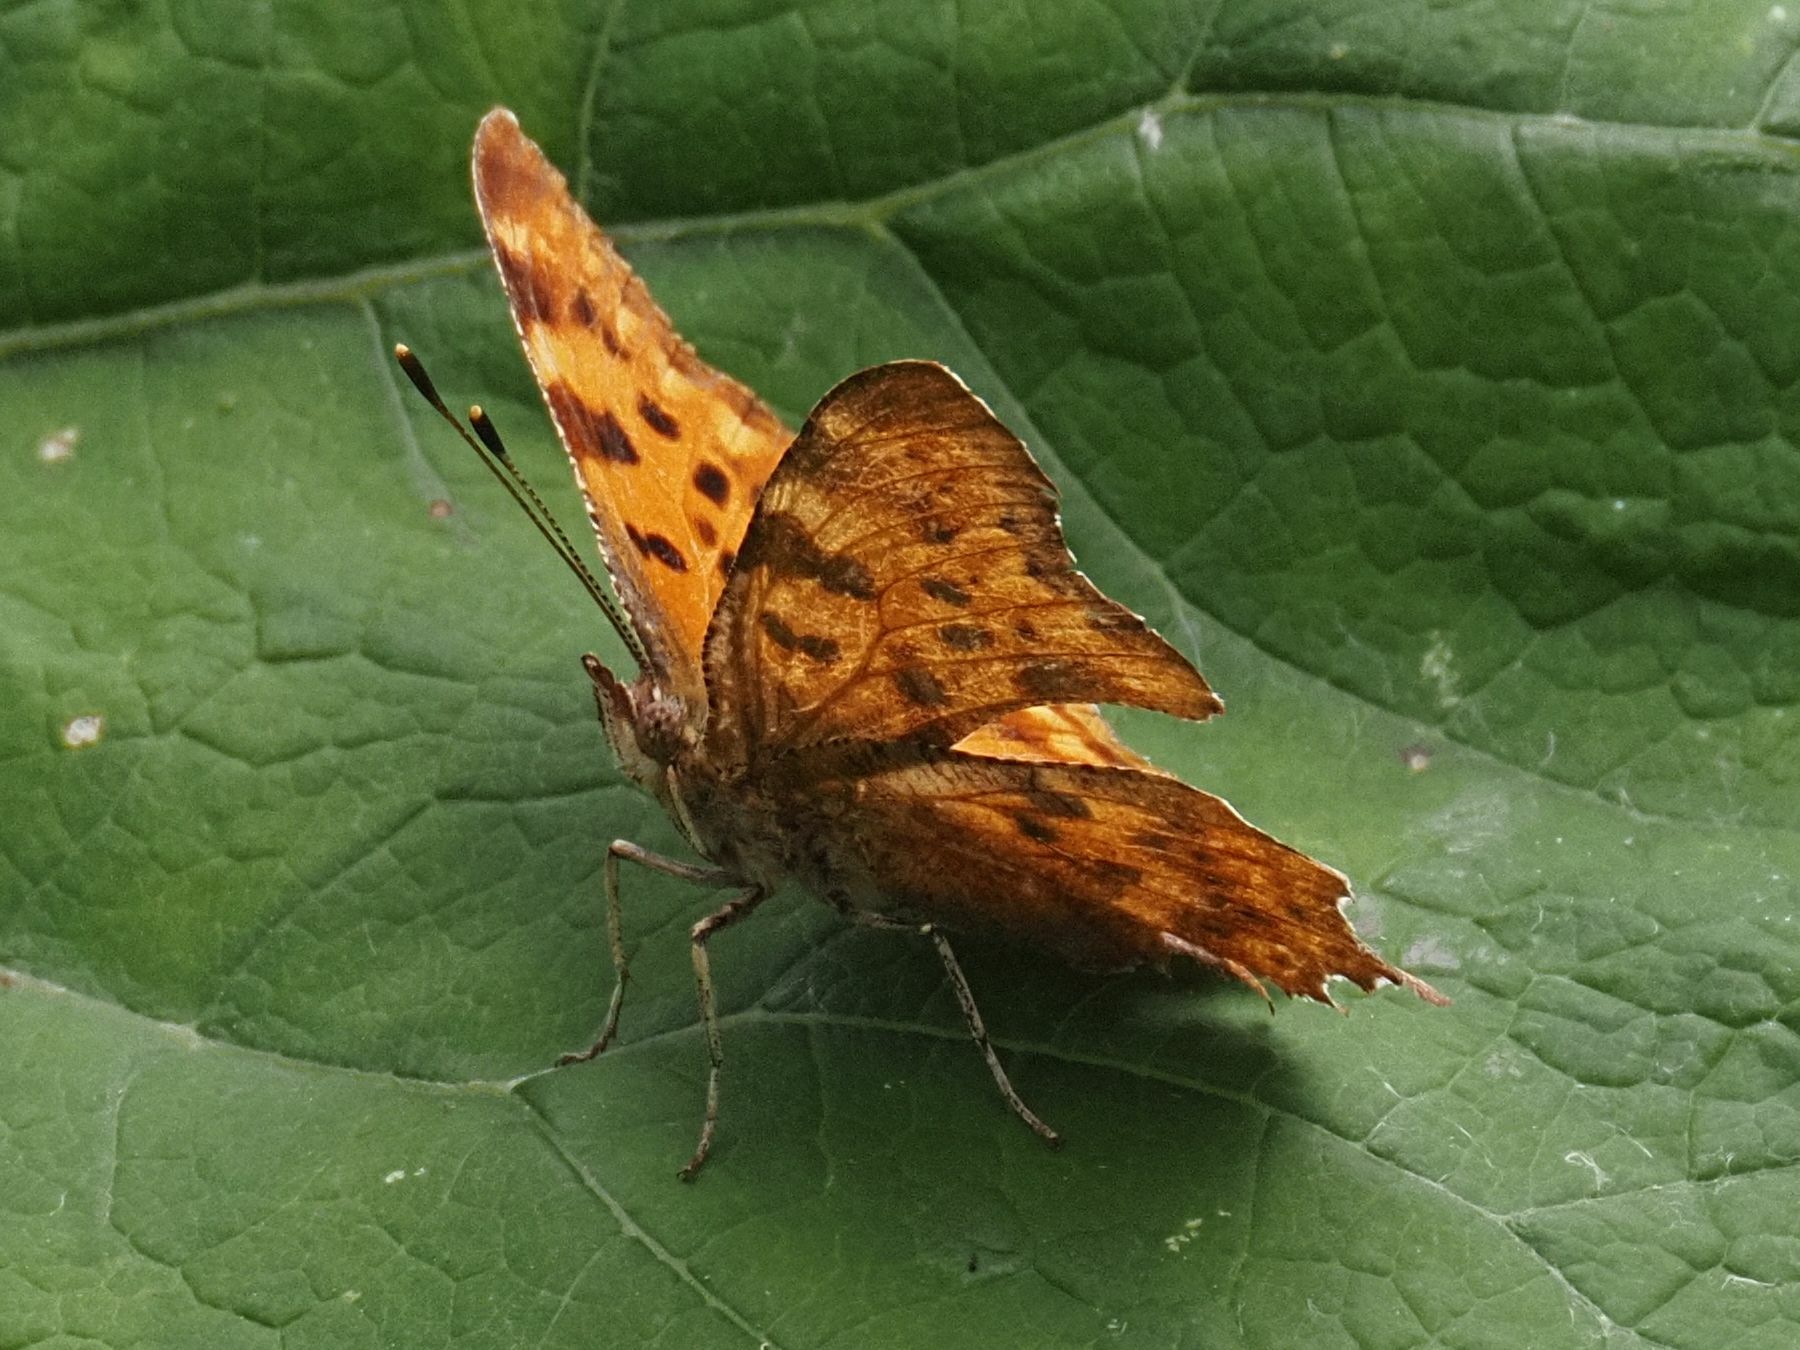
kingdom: Animalia
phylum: Arthropoda
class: Insecta
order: Lepidoptera
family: Nymphalidae
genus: Polygonia
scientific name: Polygonia c-album
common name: Comma
